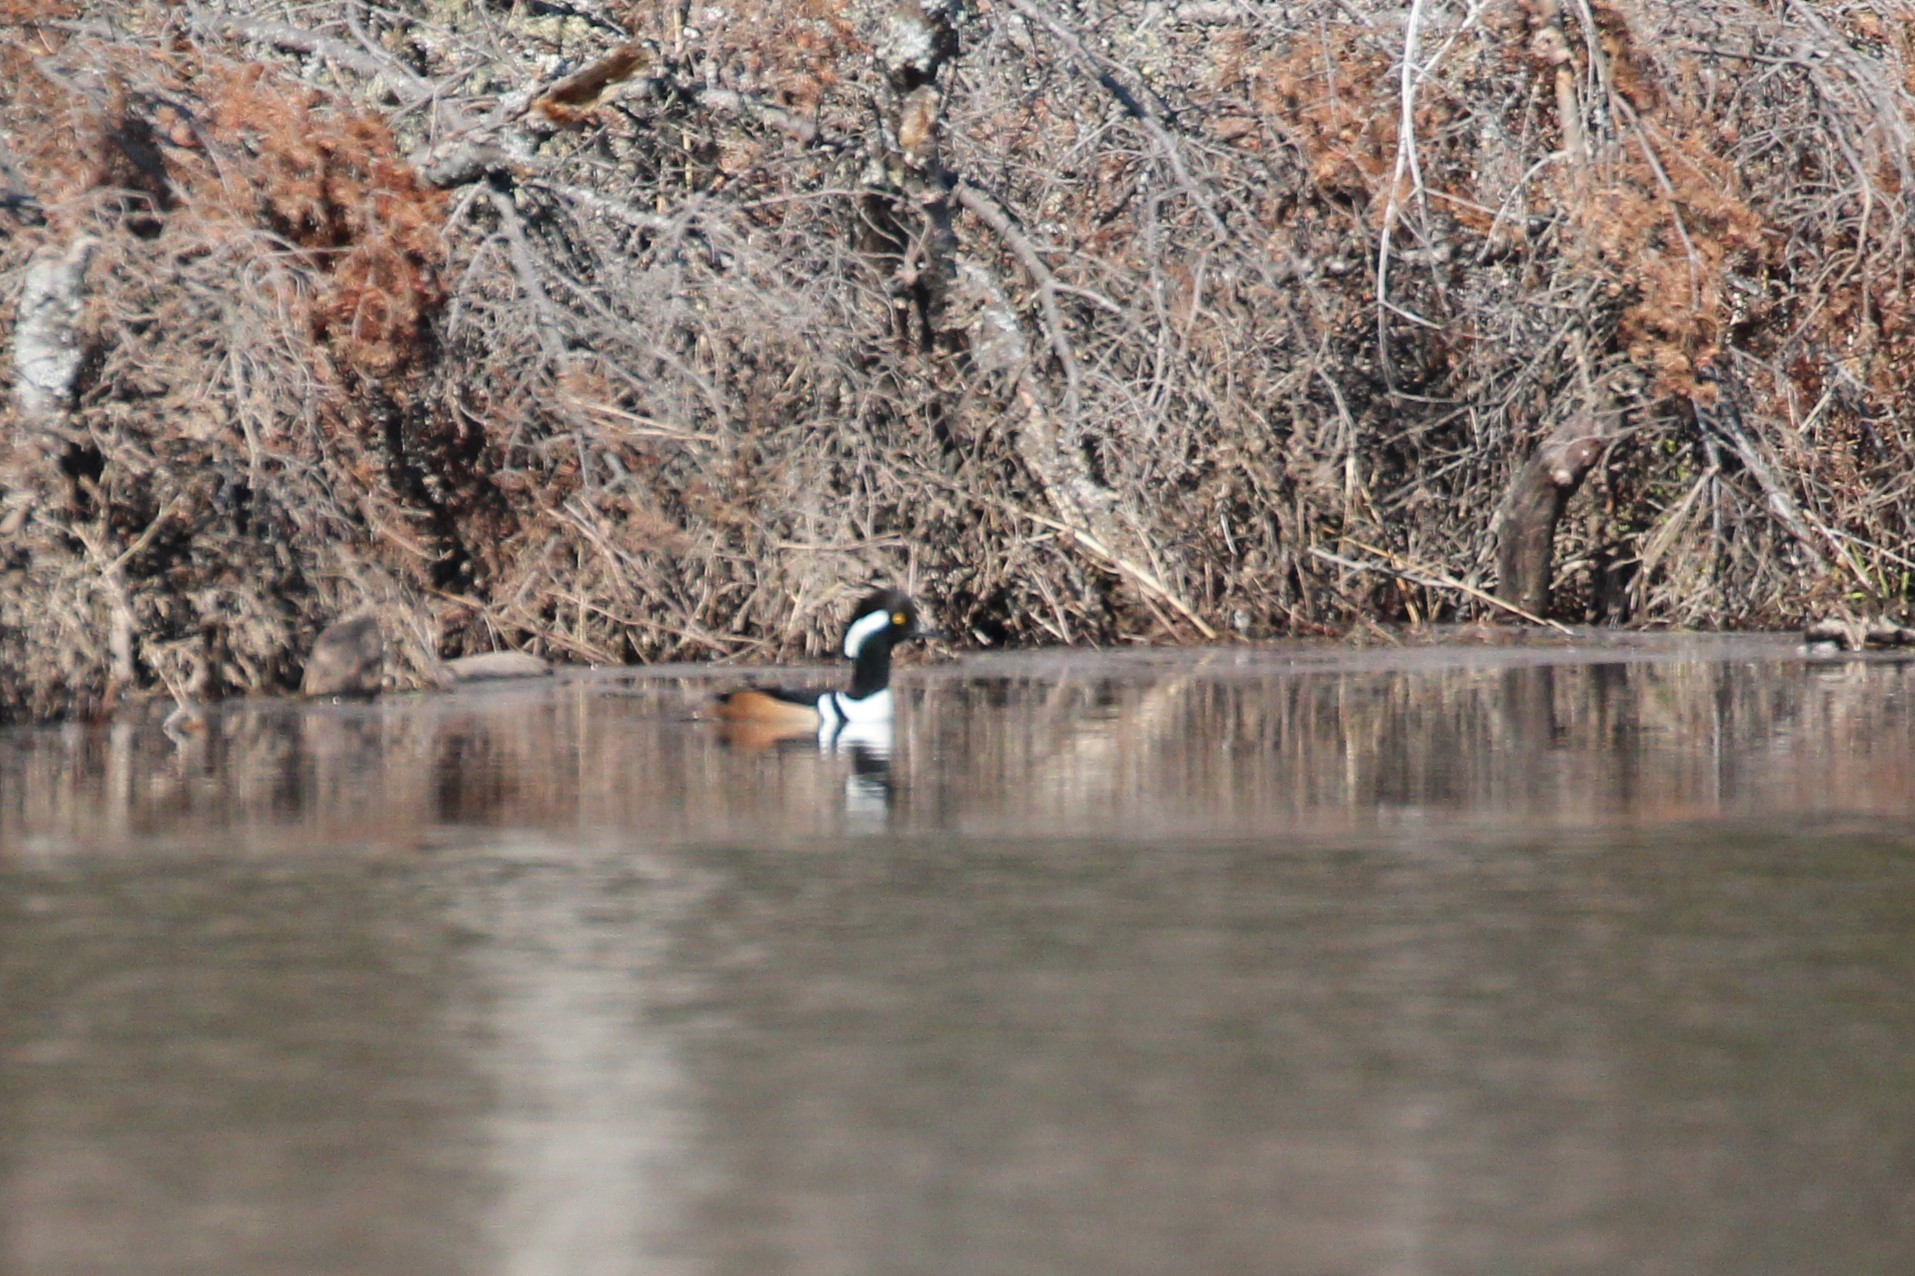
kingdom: Animalia
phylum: Chordata
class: Aves
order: Anseriformes
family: Anatidae
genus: Lophodytes
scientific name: Lophodytes cucullatus
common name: Hooded merganser
